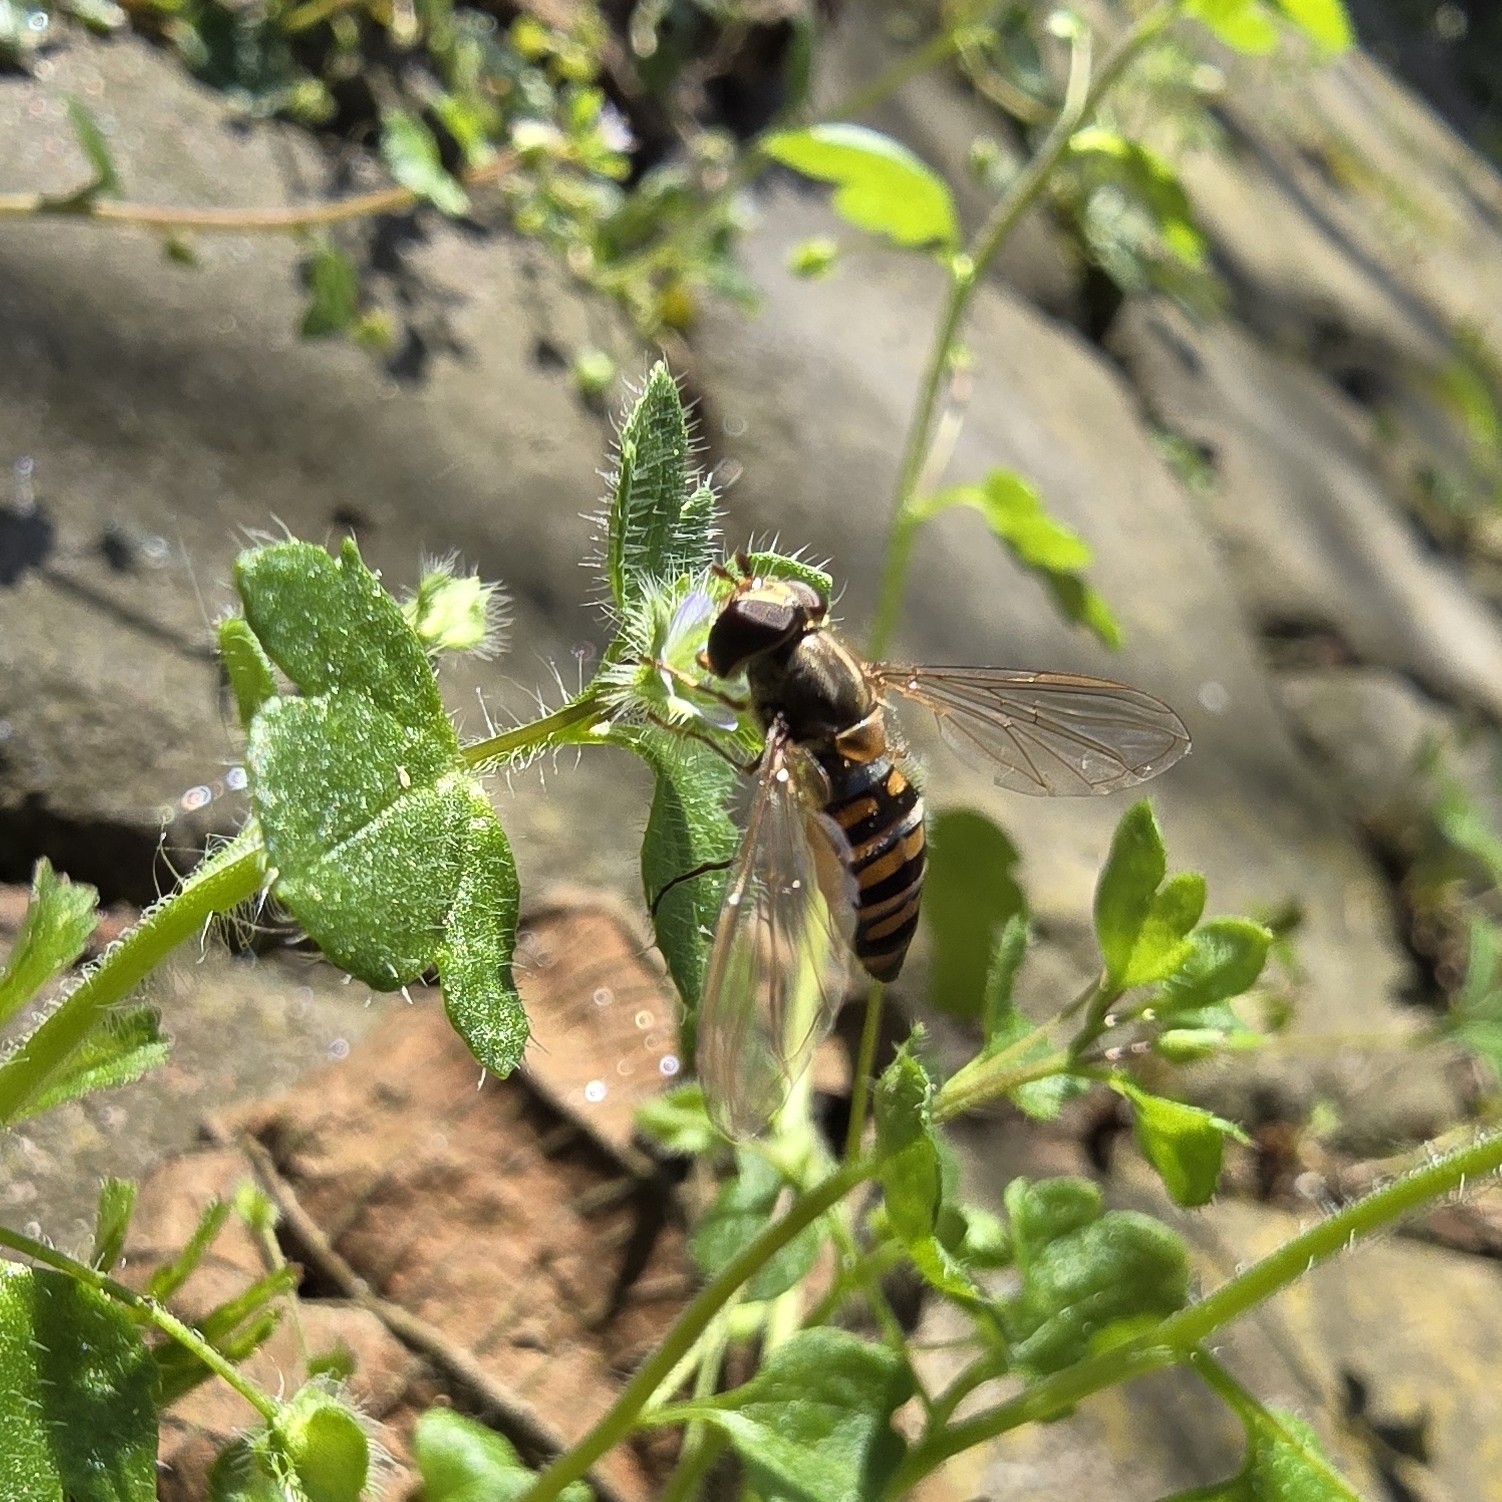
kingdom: Animalia
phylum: Arthropoda
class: Insecta
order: Diptera
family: Syrphidae
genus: Episyrphus
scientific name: Episyrphus balteatus
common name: Marmalade hoverfly
